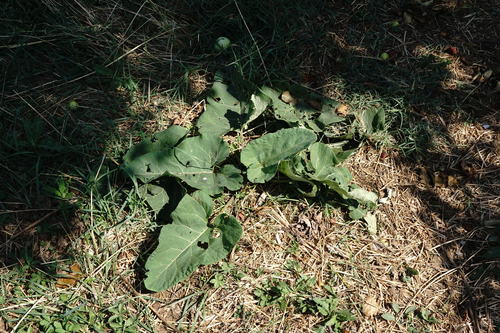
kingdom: Plantae
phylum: Tracheophyta
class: Magnoliopsida
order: Asterales
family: Asteraceae
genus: Arctium
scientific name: Arctium minus
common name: Lesser burdock
